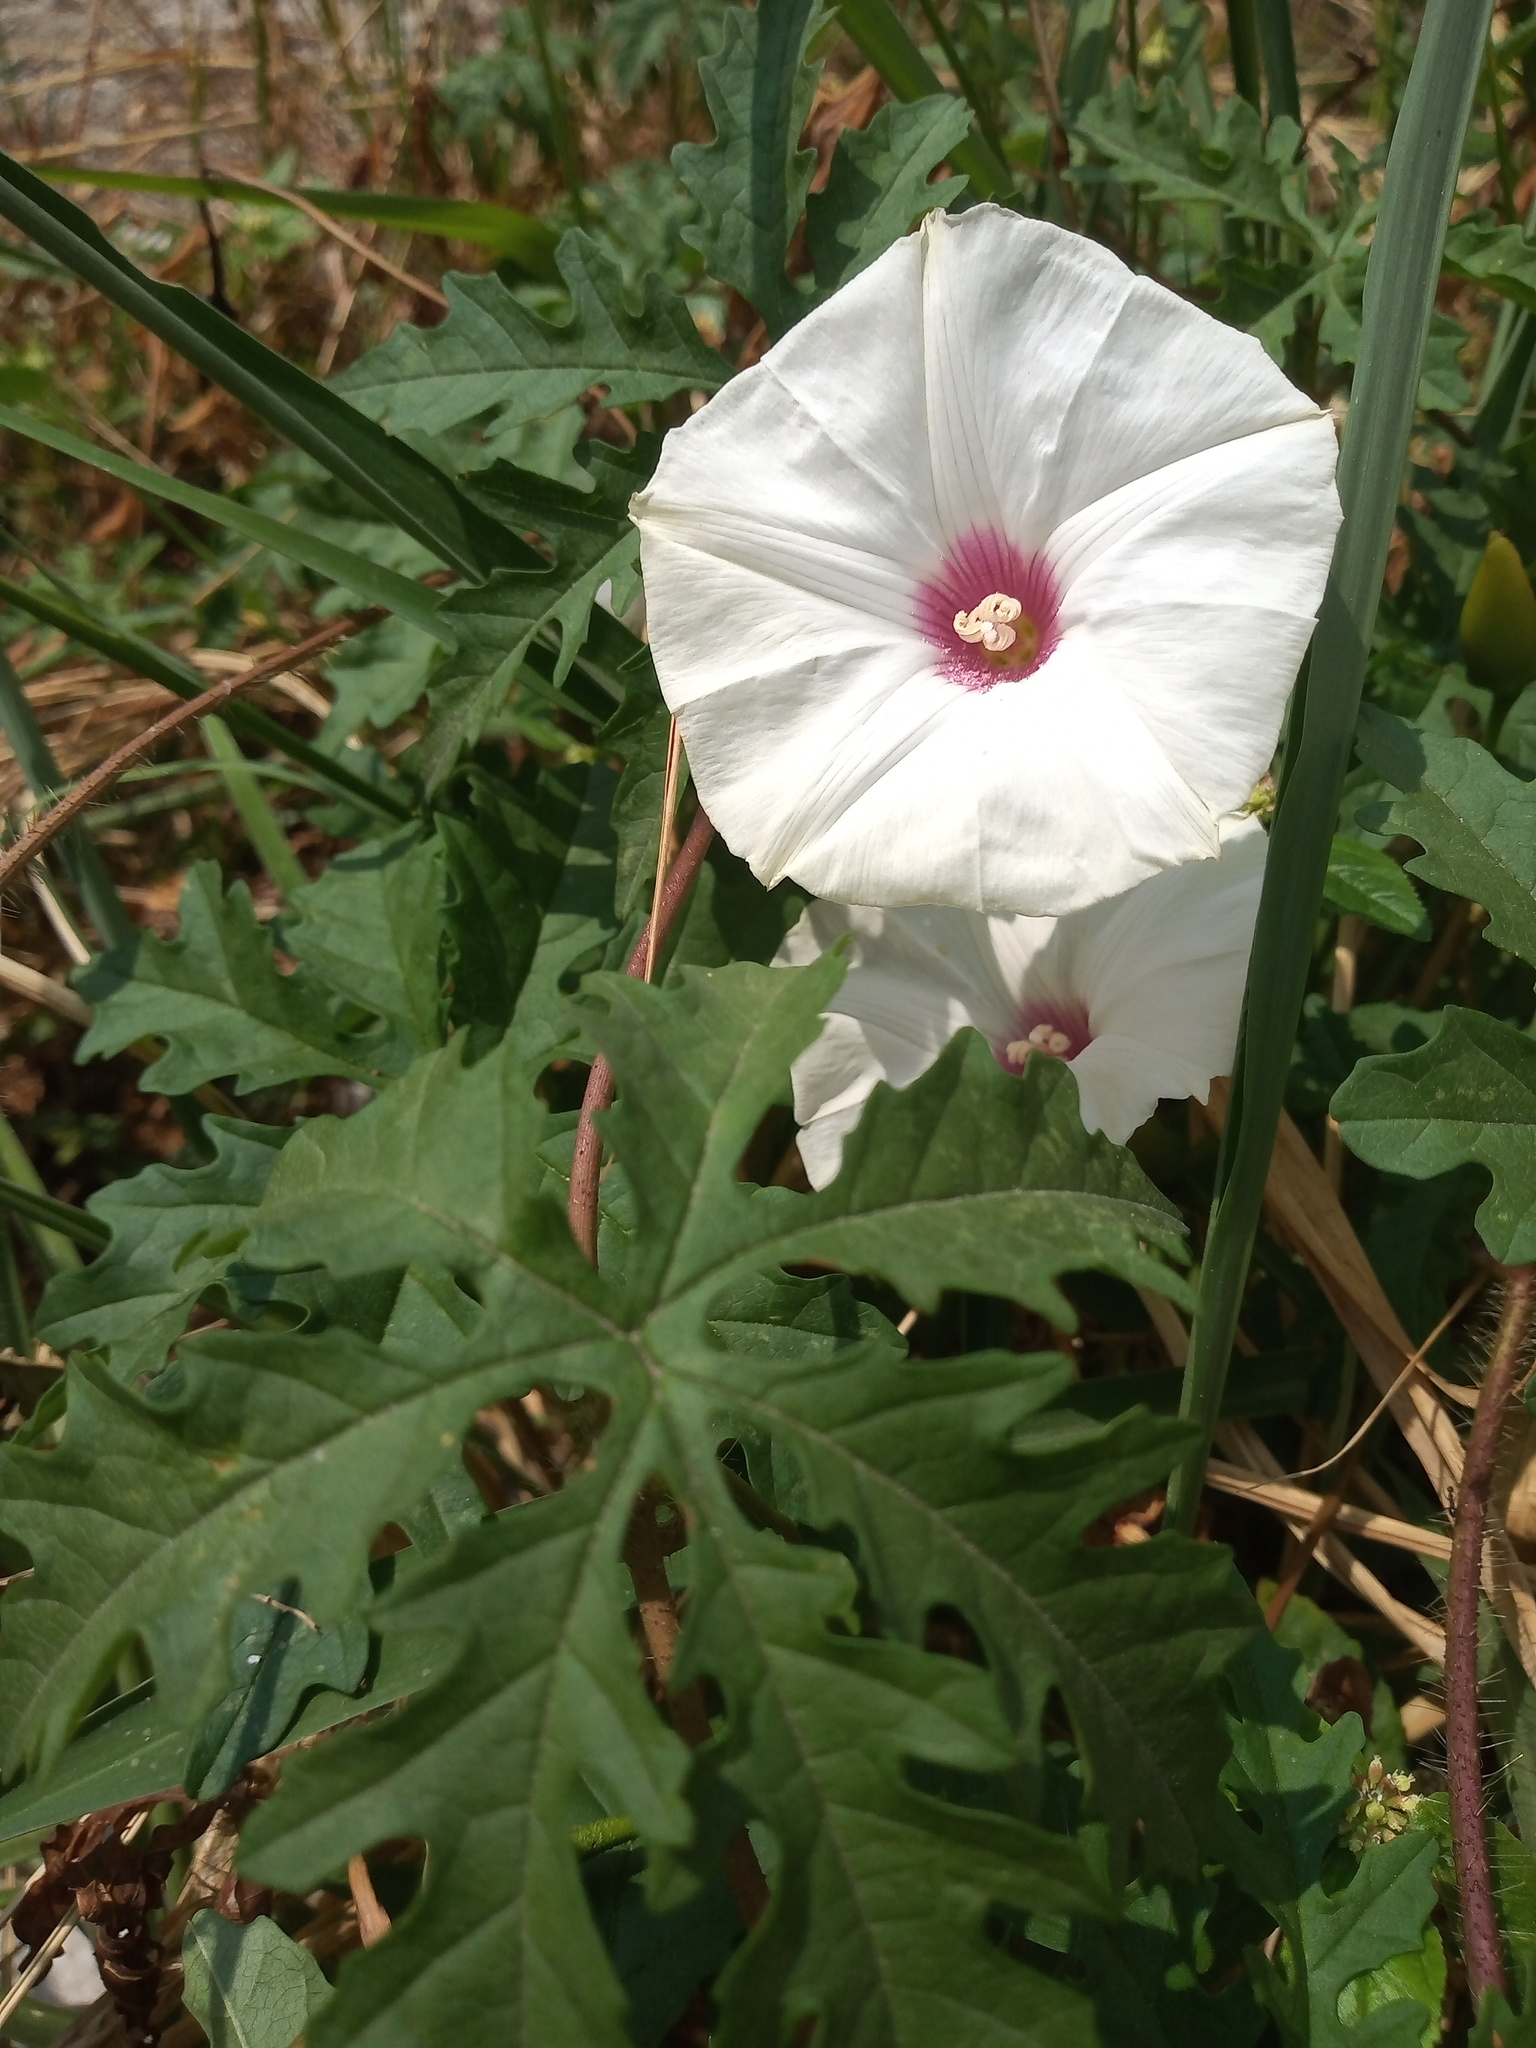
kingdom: Plantae
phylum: Tracheophyta
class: Magnoliopsida
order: Solanales
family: Convolvulaceae
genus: Distimake
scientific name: Distimake dissectus
